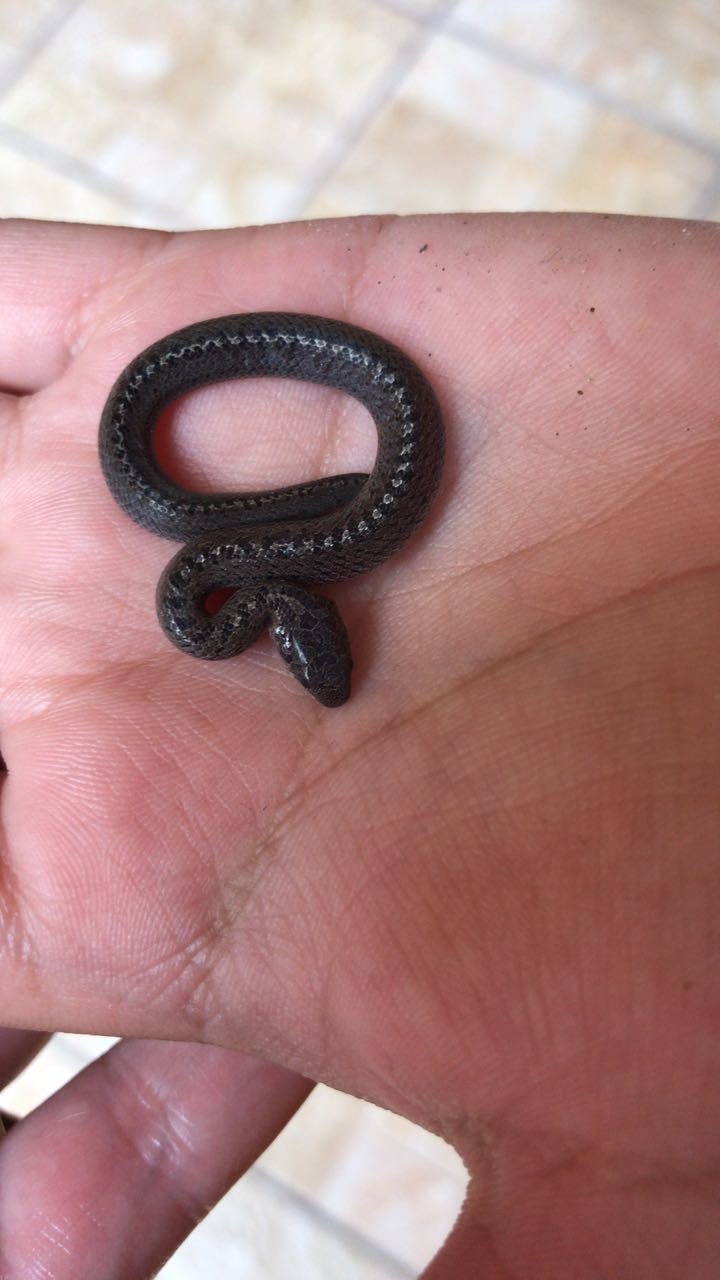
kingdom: Animalia
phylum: Chordata
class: Squamata
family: Colubridae
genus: Conopsis
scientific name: Conopsis nasus
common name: Largenose earth snake
